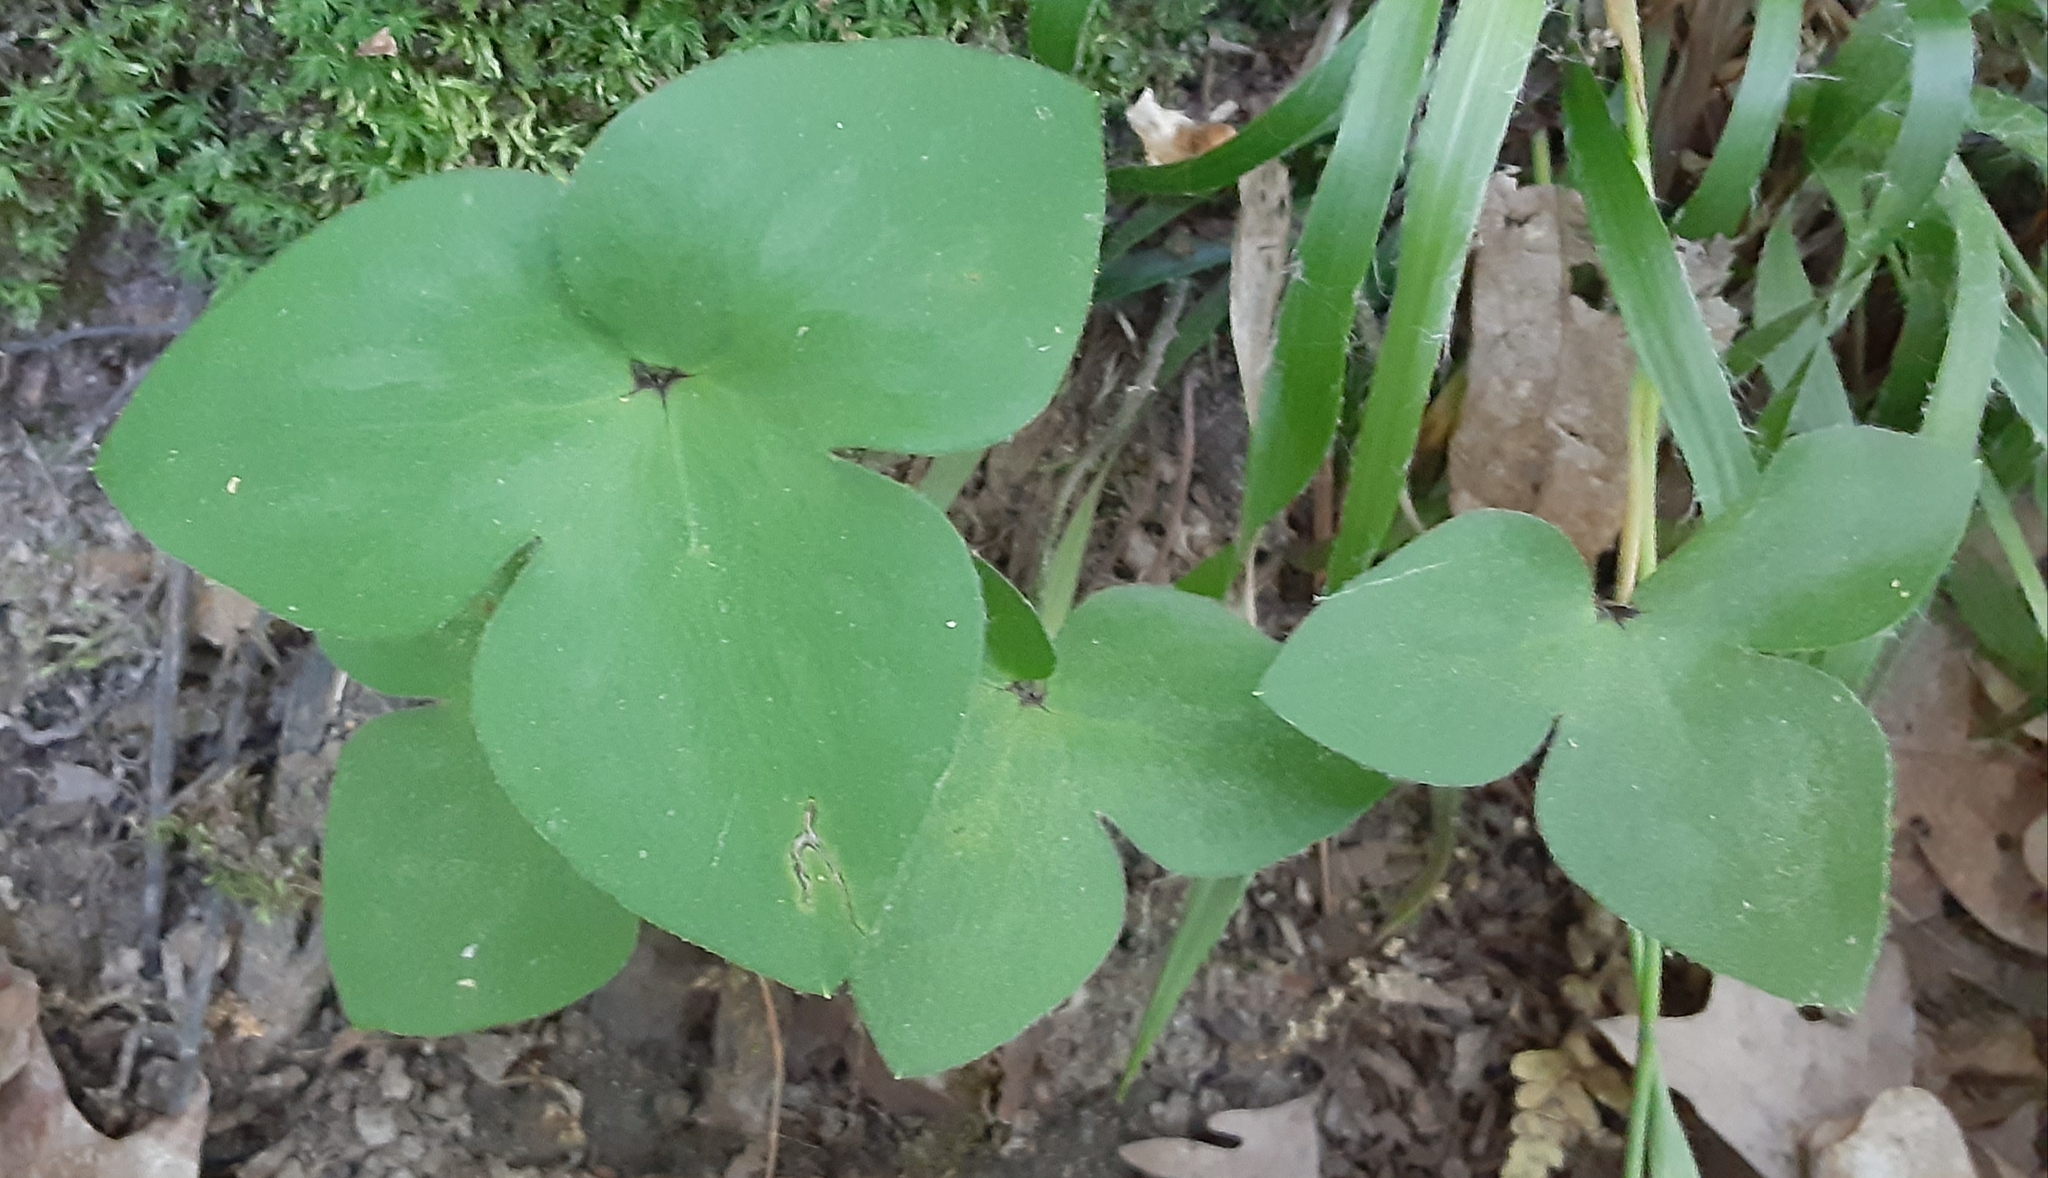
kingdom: Plantae
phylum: Tracheophyta
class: Magnoliopsida
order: Ranunculales
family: Ranunculaceae
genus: Hepatica
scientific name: Hepatica acutiloba
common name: Sharp-lobed hepatica
